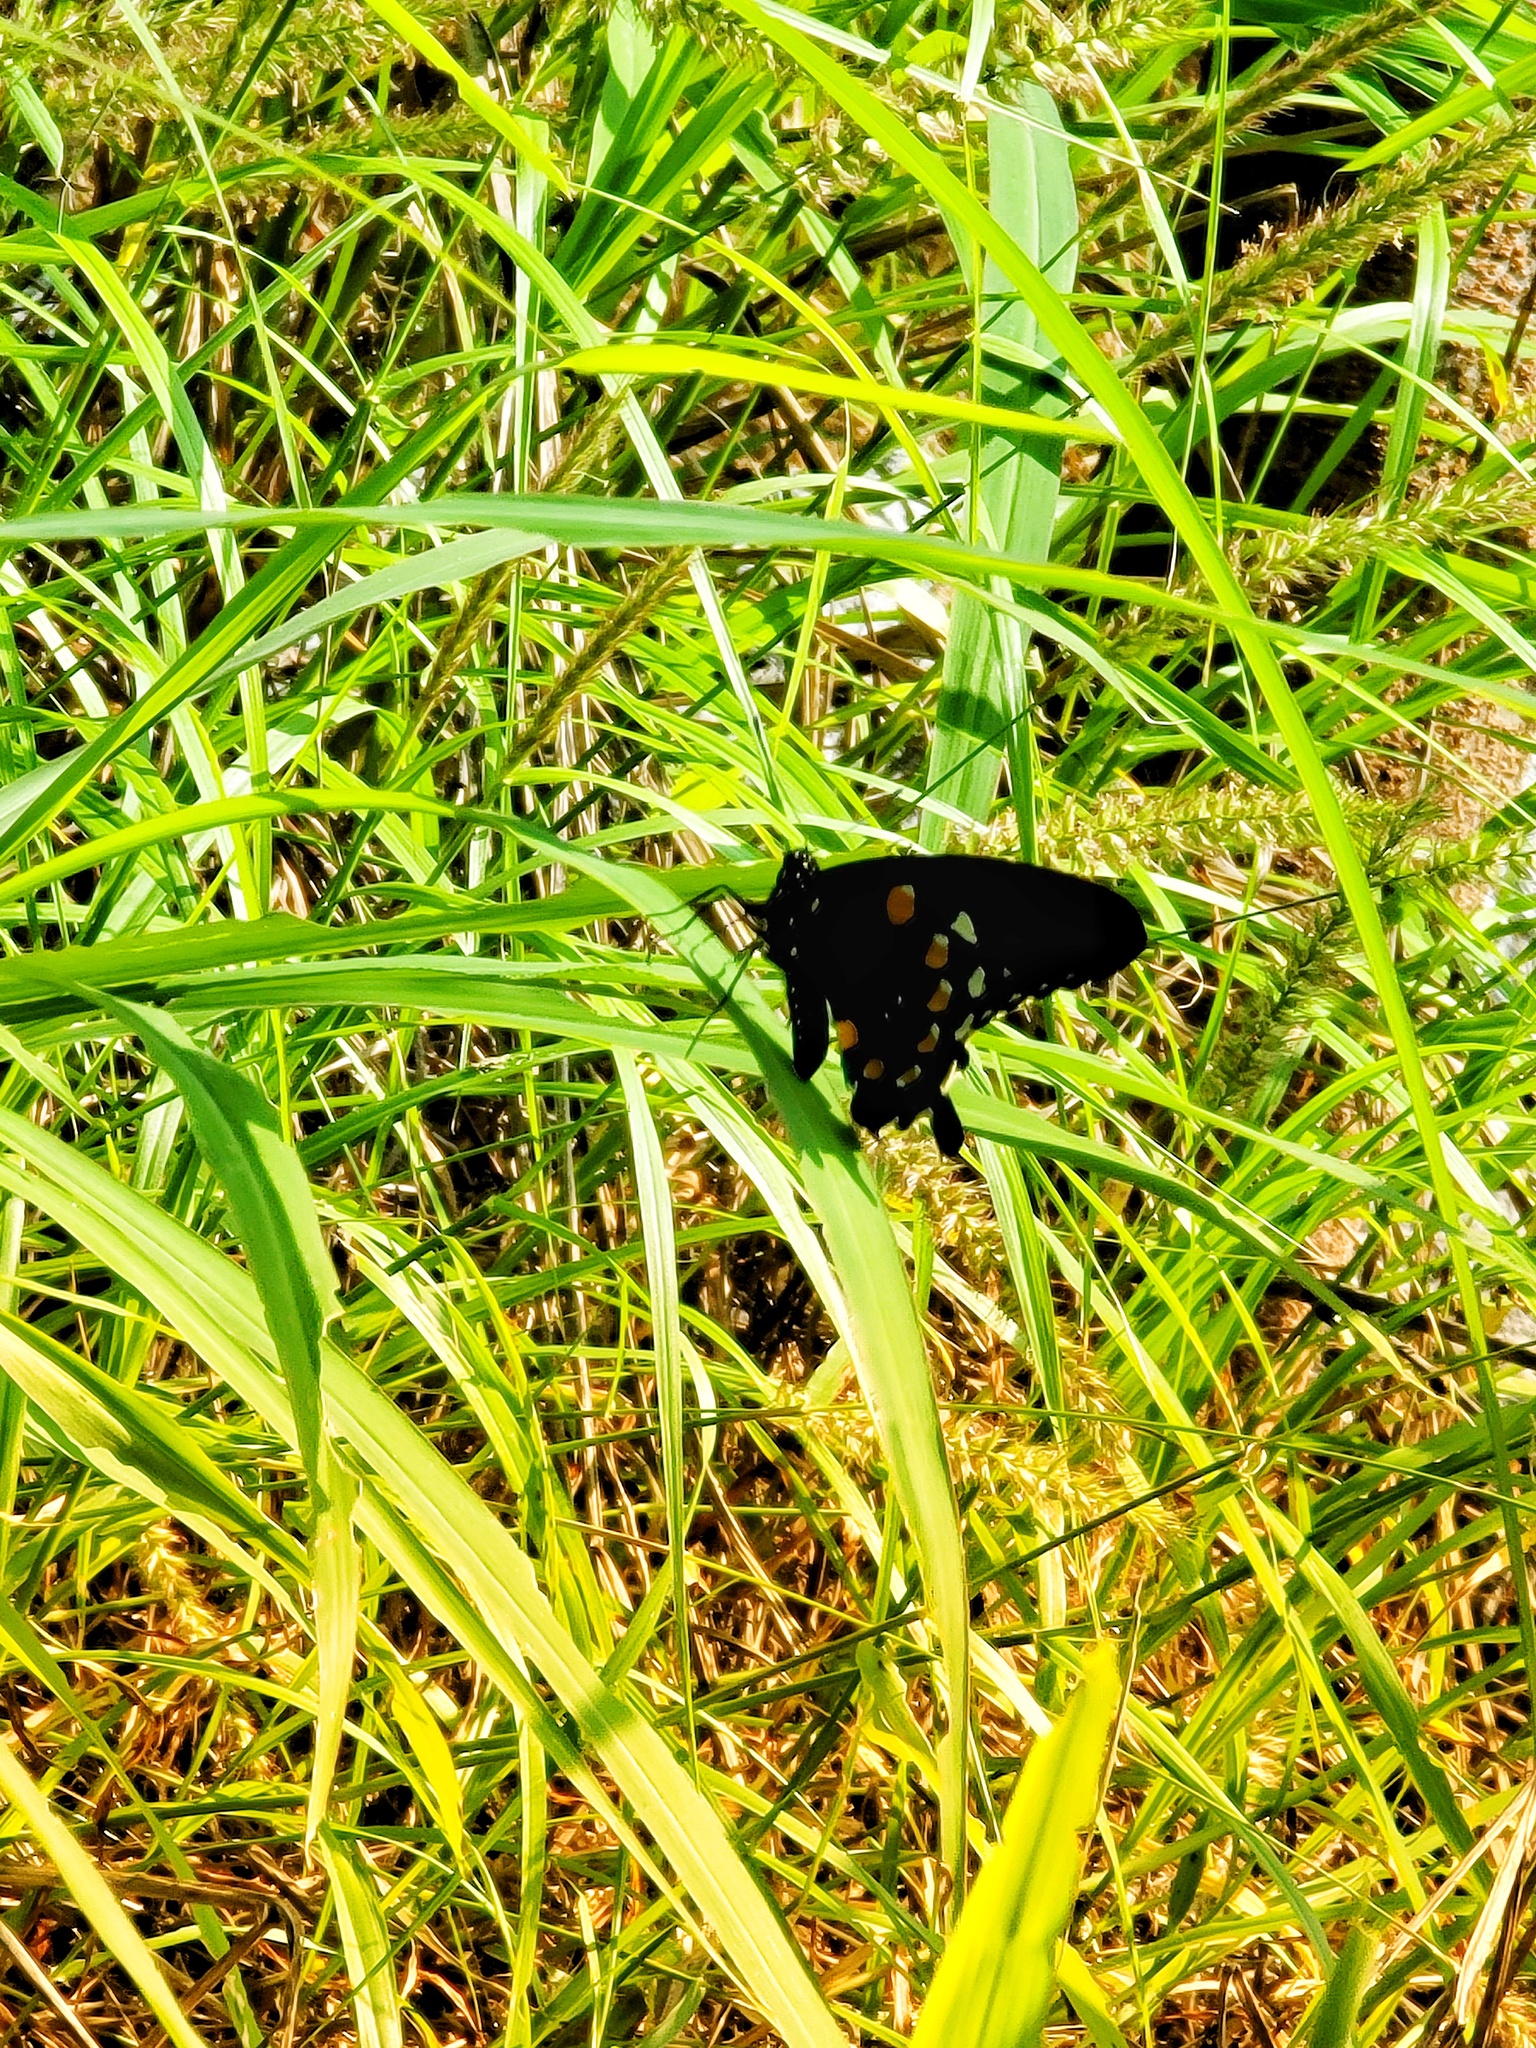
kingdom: Animalia
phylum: Arthropoda
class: Insecta
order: Lepidoptera
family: Papilionidae
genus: Battus
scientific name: Battus philenor
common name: Pipevine swallowtail
